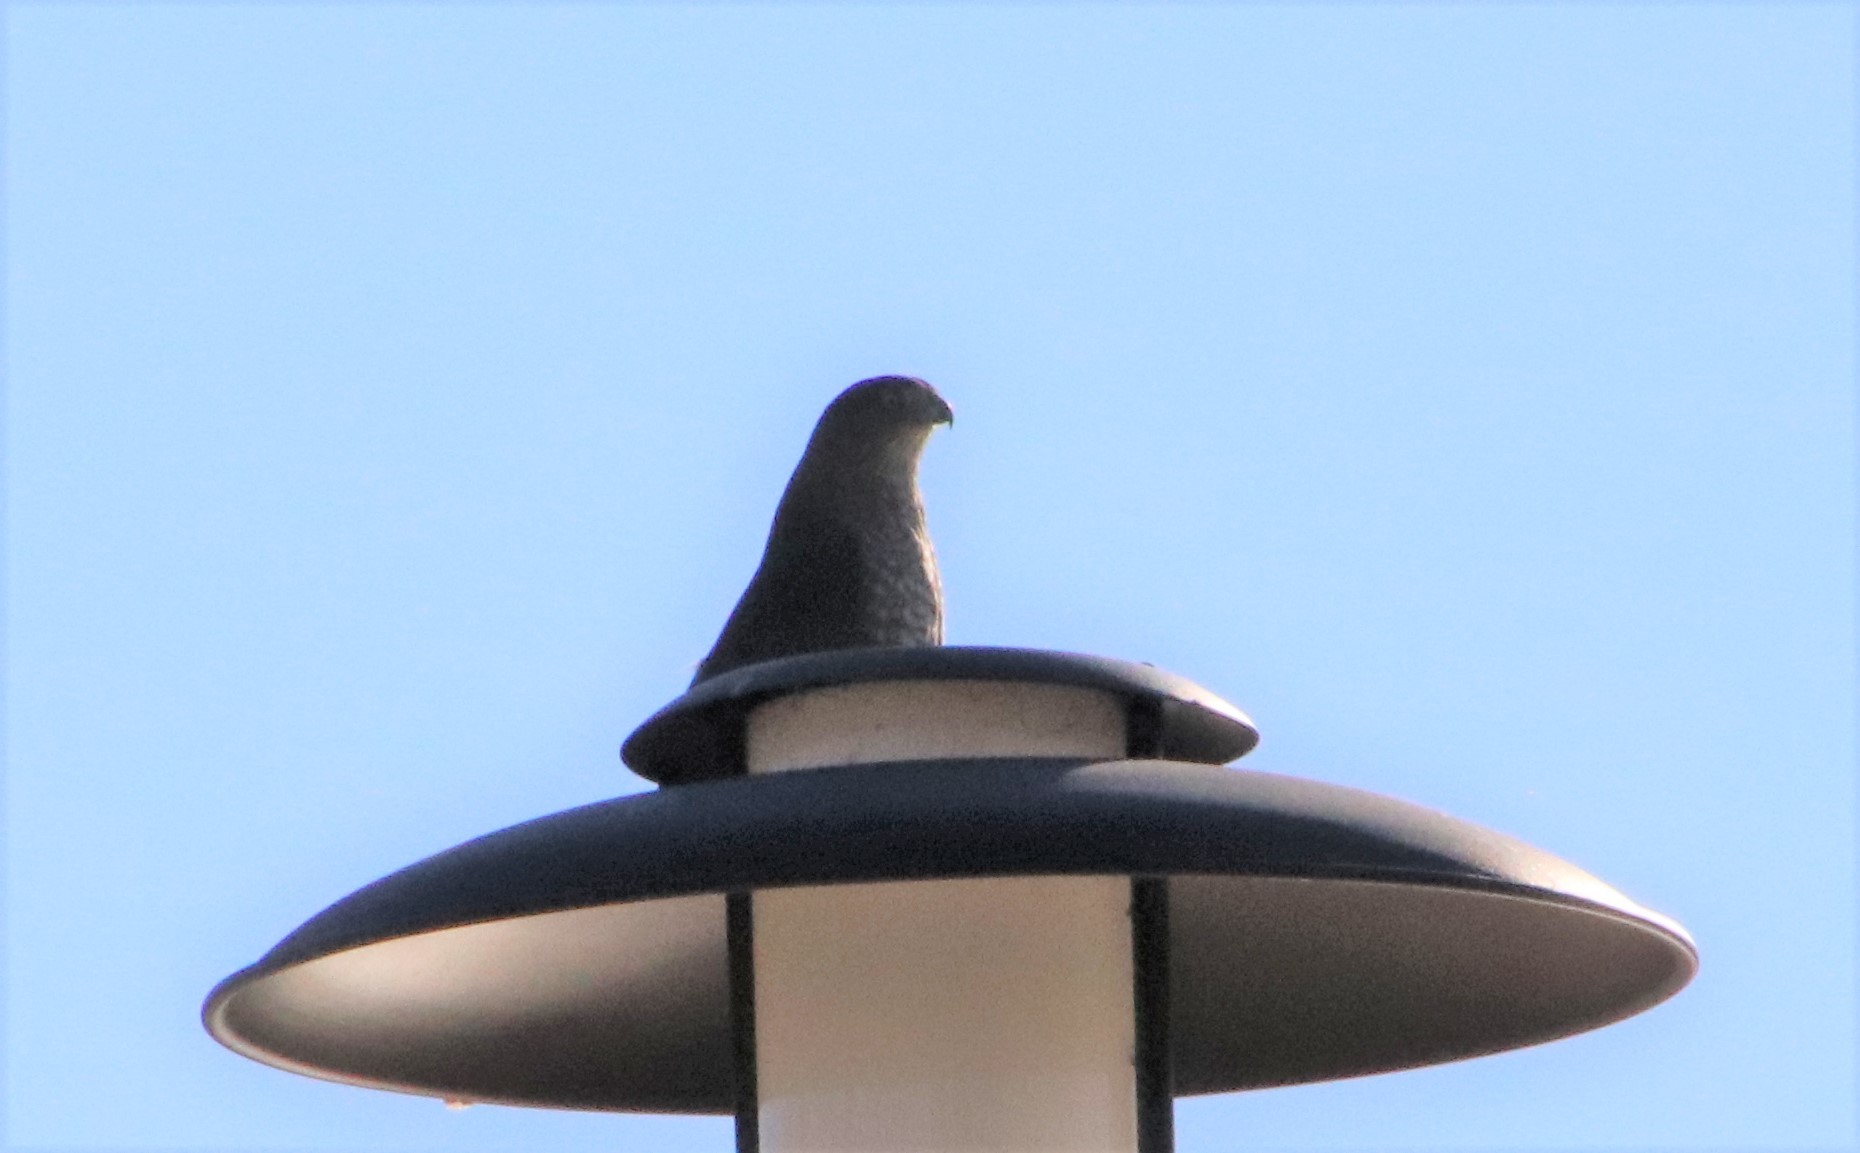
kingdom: Animalia
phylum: Chordata
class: Aves
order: Accipitriformes
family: Accipitridae
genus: Accipiter
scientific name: Accipiter cooperii
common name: Cooper's hawk
